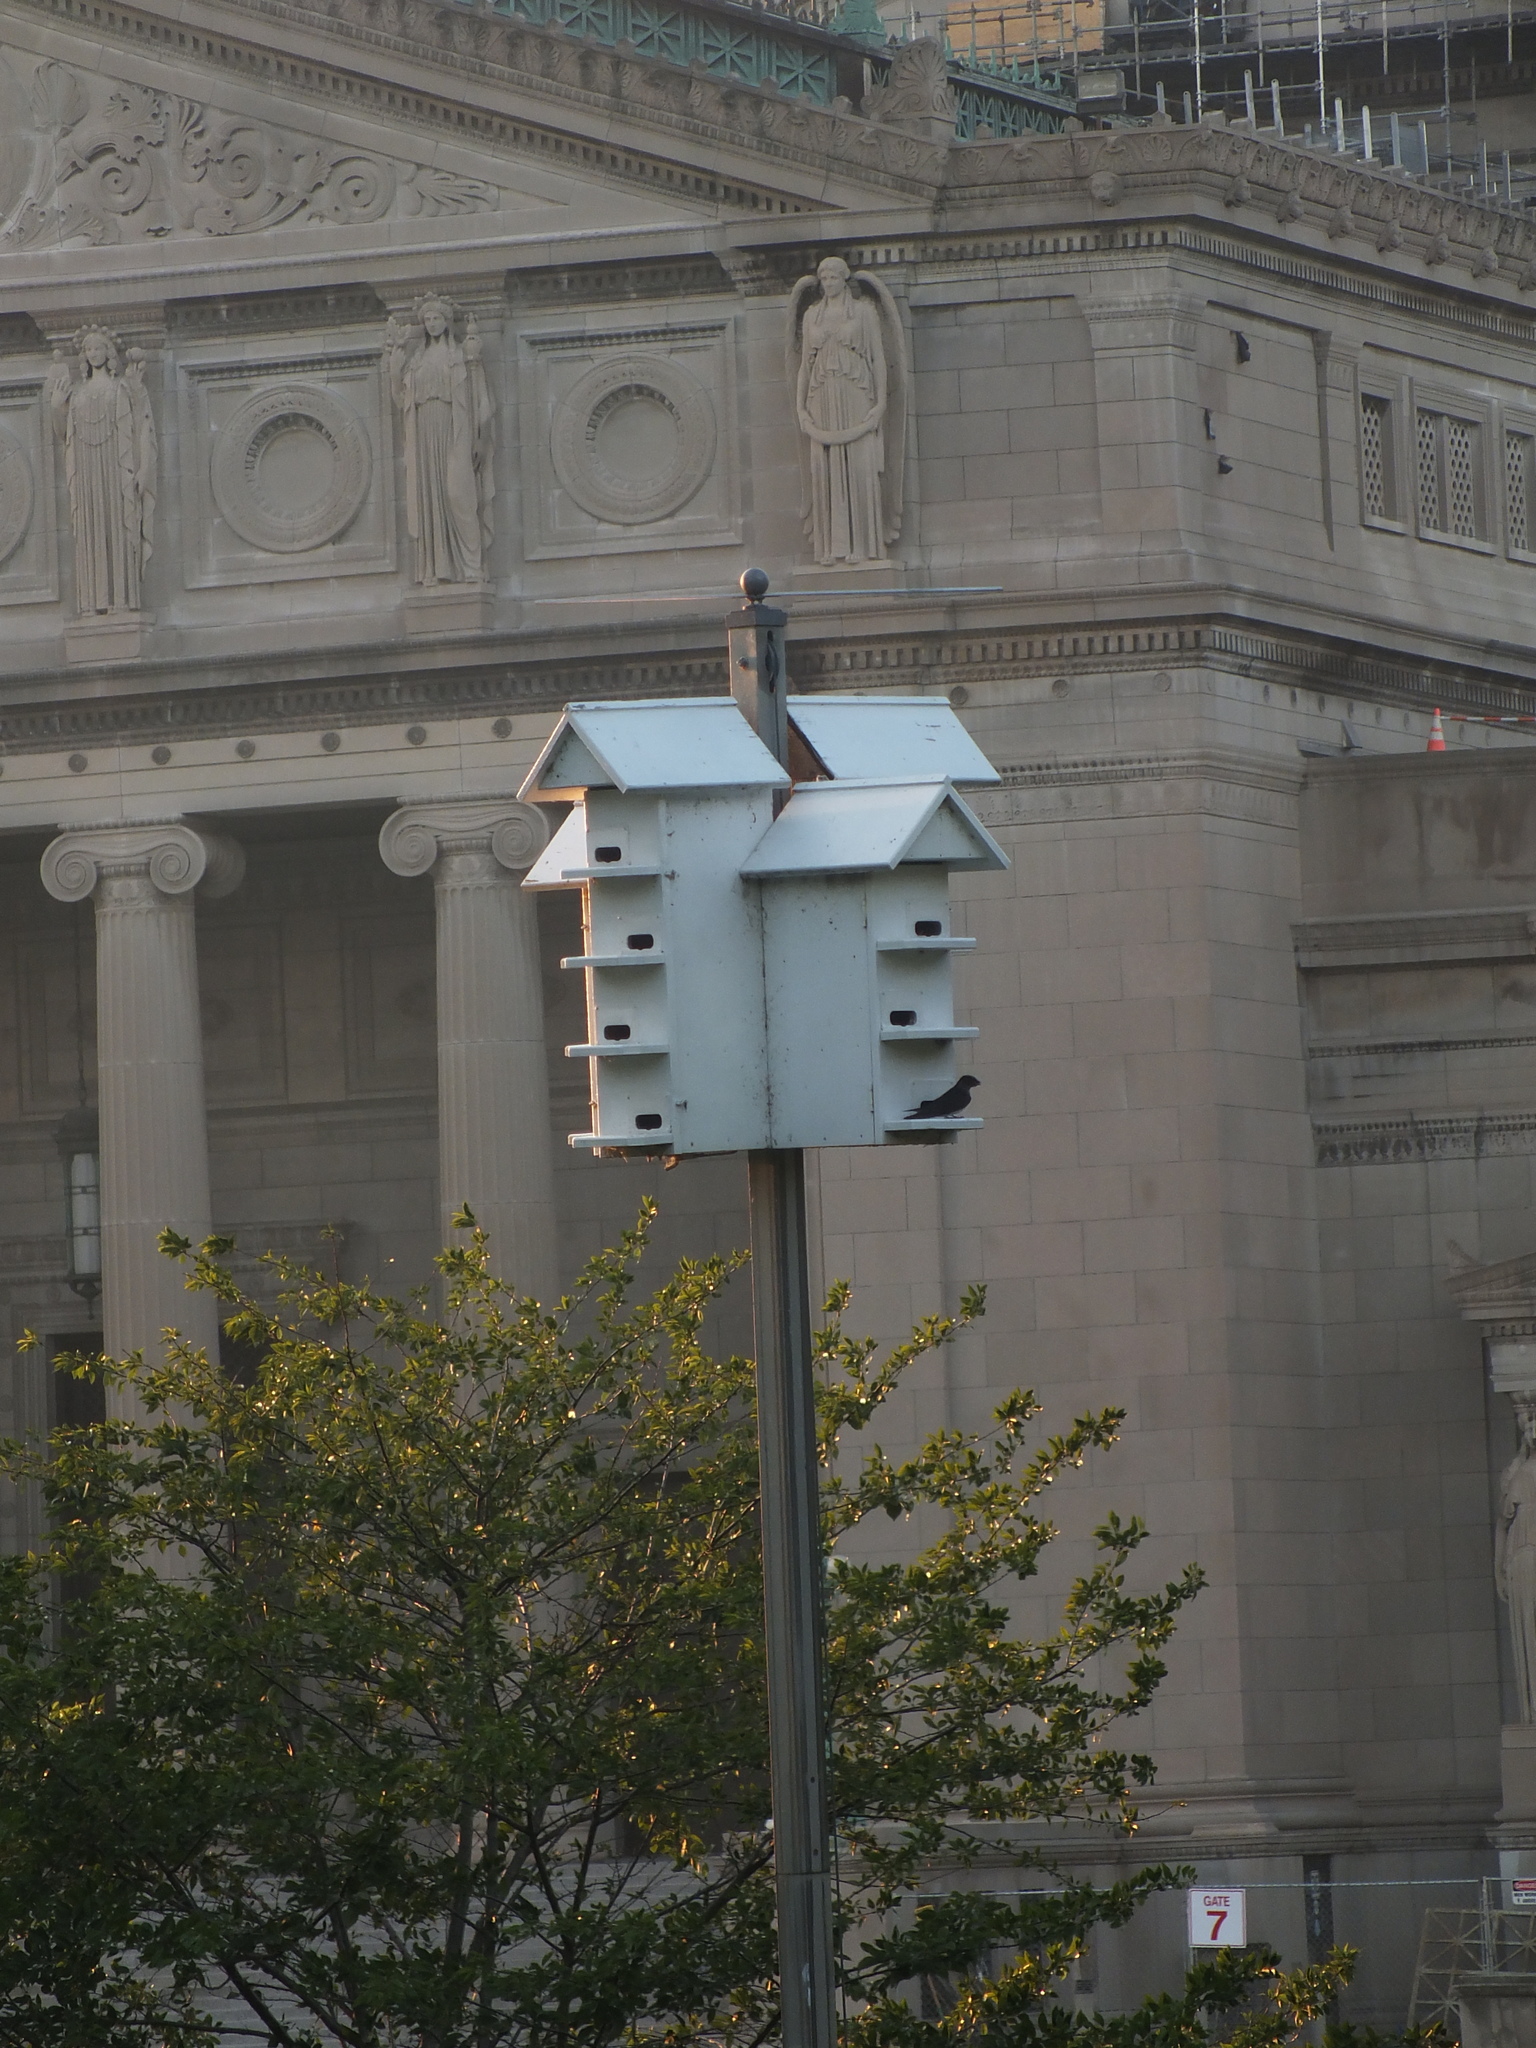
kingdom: Animalia
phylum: Chordata
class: Aves
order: Passeriformes
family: Hirundinidae
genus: Progne
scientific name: Progne subis
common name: Purple martin
